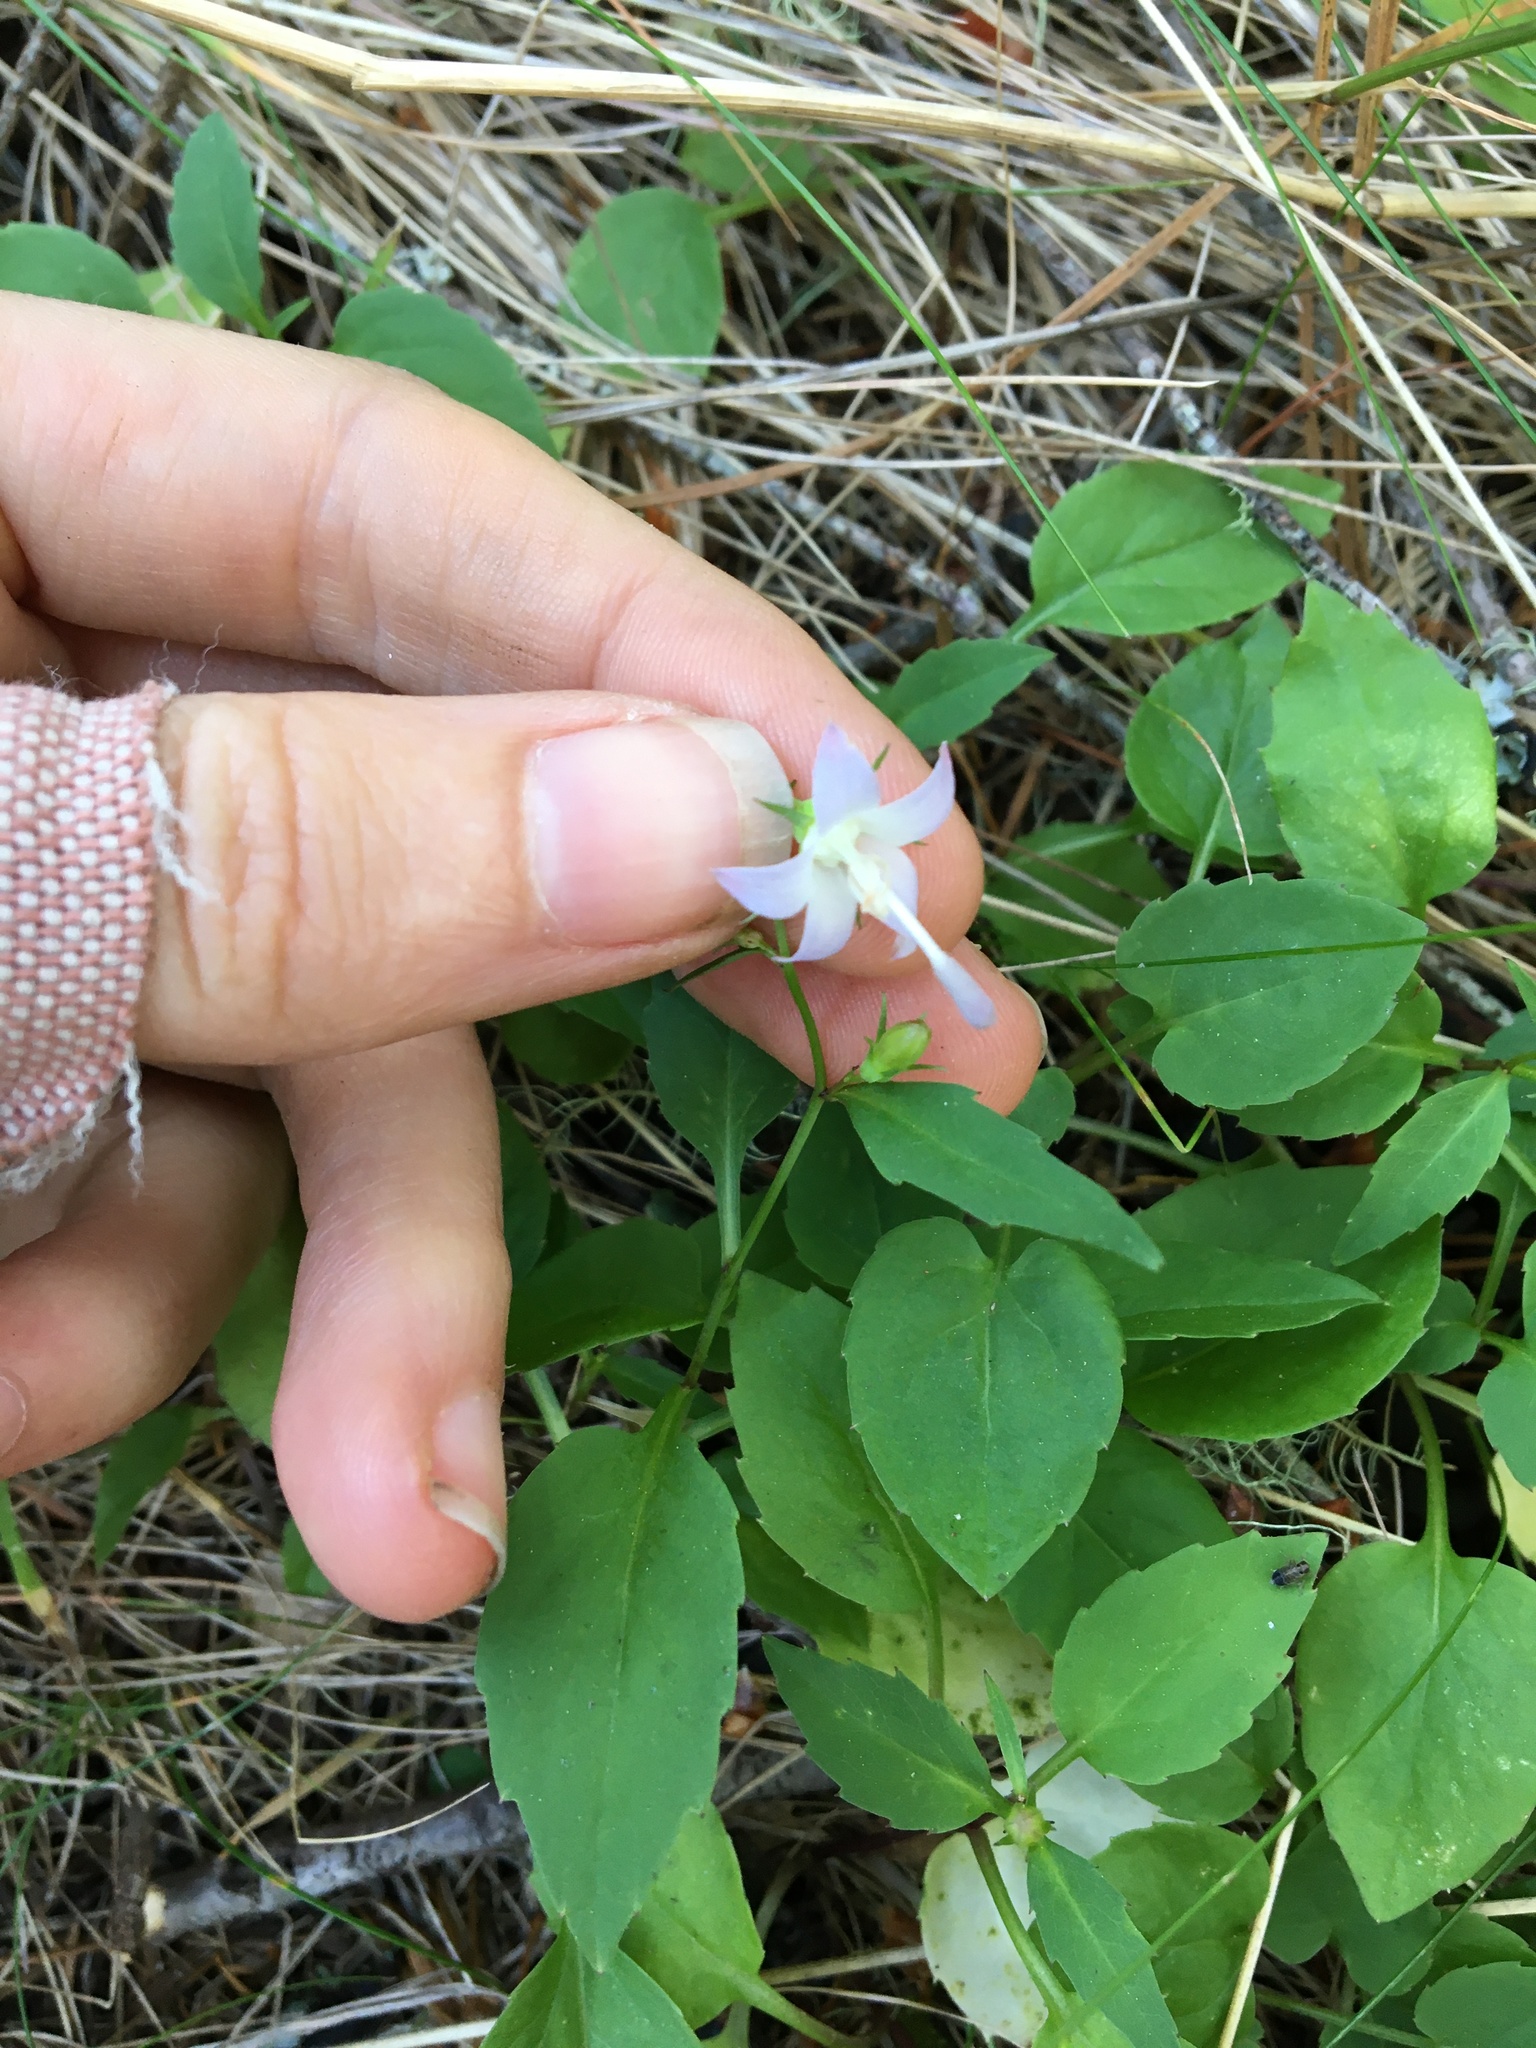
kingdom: Plantae
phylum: Tracheophyta
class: Magnoliopsida
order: Asterales
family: Campanulaceae
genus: Campanula
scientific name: Campanula scouleri
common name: Scouler's harebell
